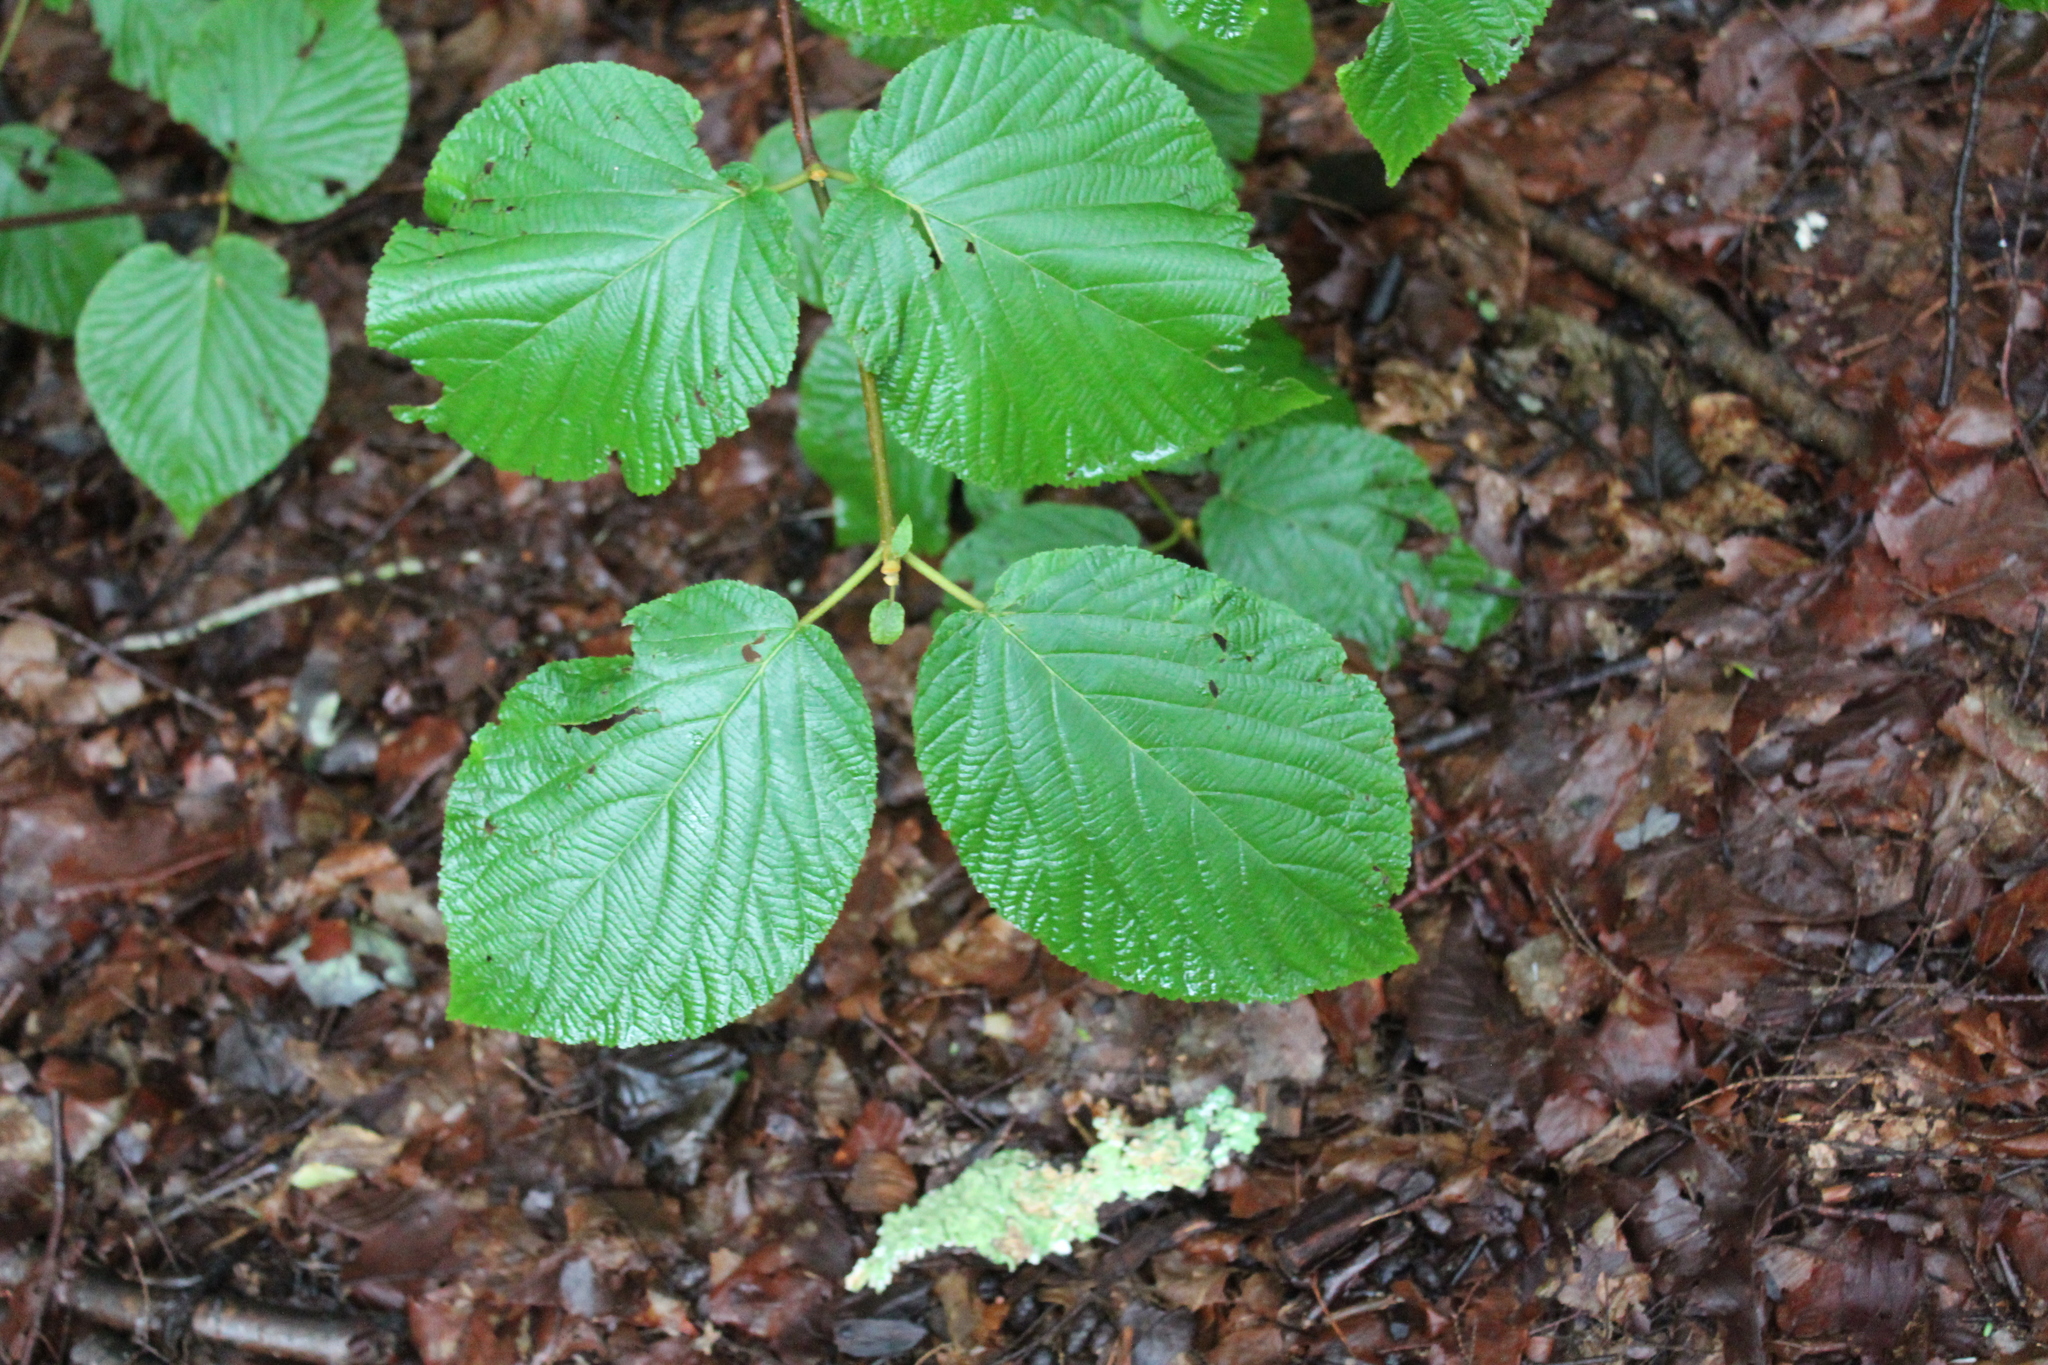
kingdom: Plantae
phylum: Tracheophyta
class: Magnoliopsida
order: Dipsacales
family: Viburnaceae
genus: Viburnum
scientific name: Viburnum lantanoides
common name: Hobblebush
